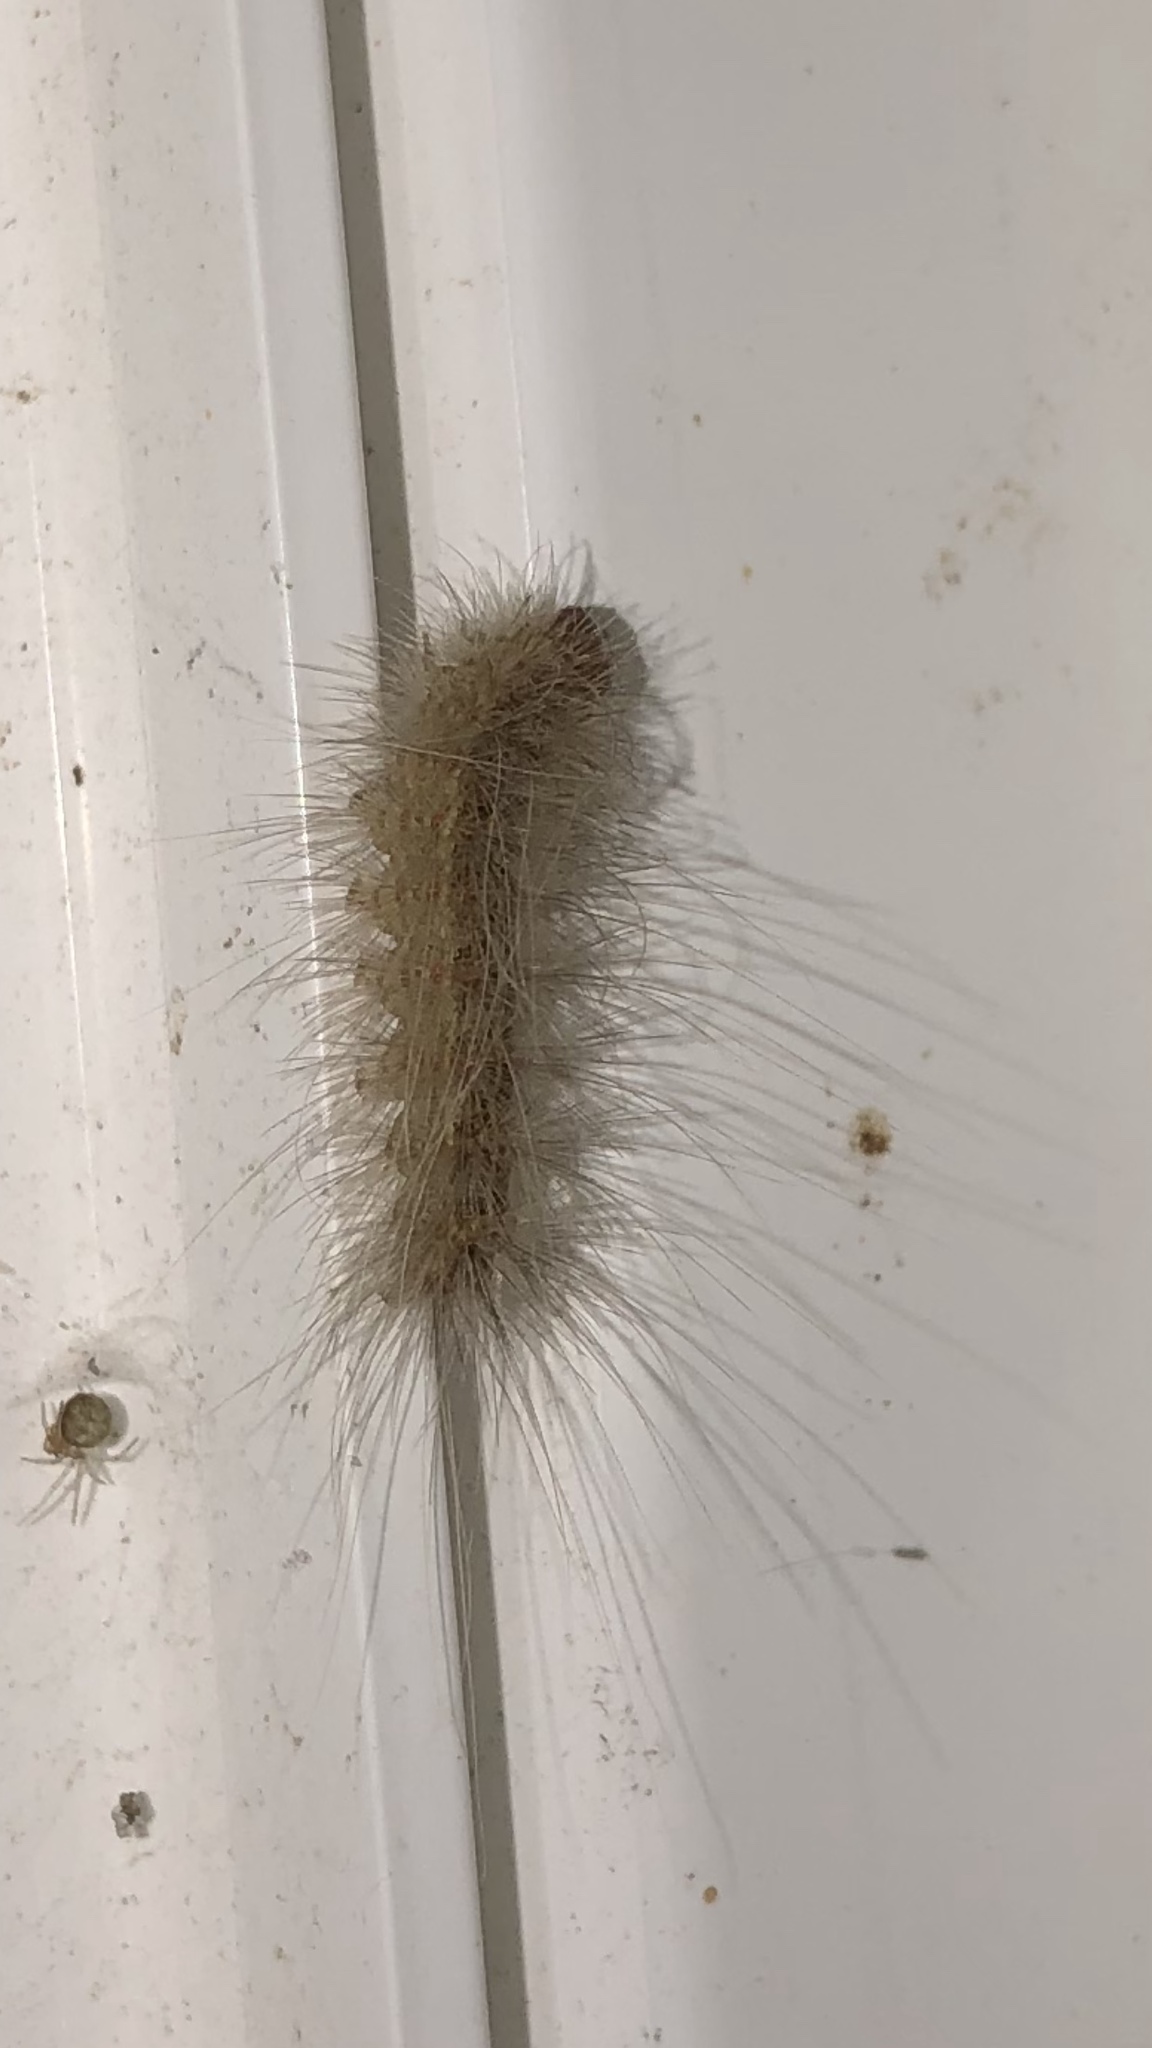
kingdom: Animalia
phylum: Arthropoda
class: Insecta
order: Lepidoptera
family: Erebidae
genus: Hyphantria
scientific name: Hyphantria cunea
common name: American white moth
